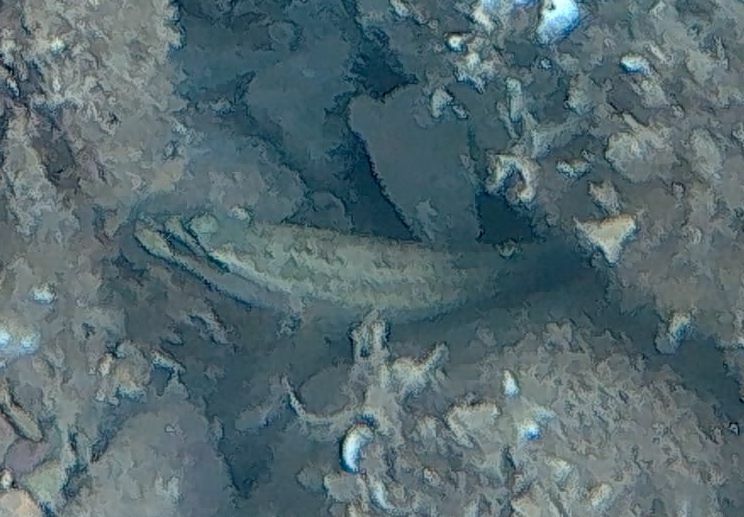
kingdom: Animalia
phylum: Chordata
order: Perciformes
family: Labridae
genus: Symphodus
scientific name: Symphodus tinca
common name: Peacock wrasse
